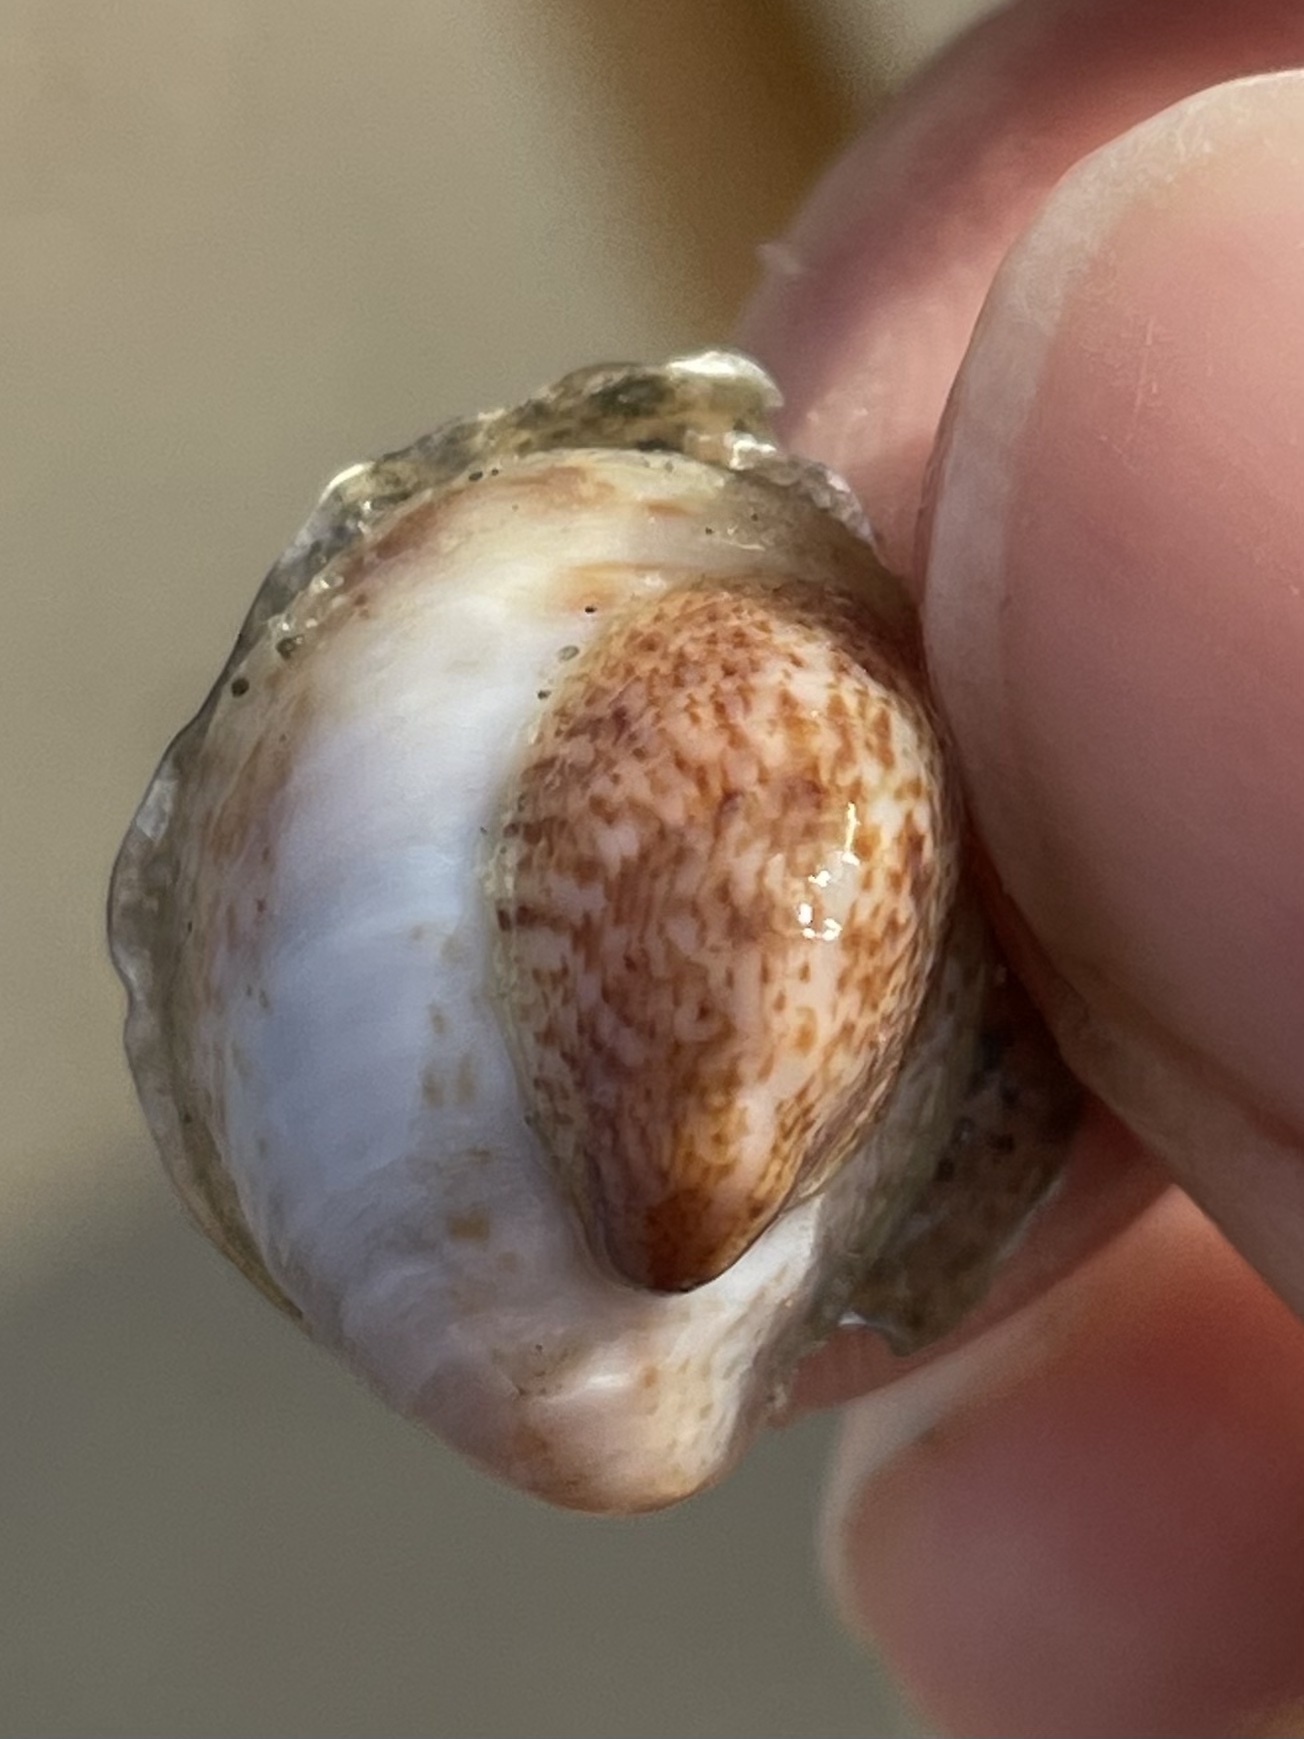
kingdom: Animalia
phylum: Mollusca
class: Gastropoda
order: Littorinimorpha
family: Calyptraeidae
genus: Crepidula
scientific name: Crepidula fornicata
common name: Slipper limpet
